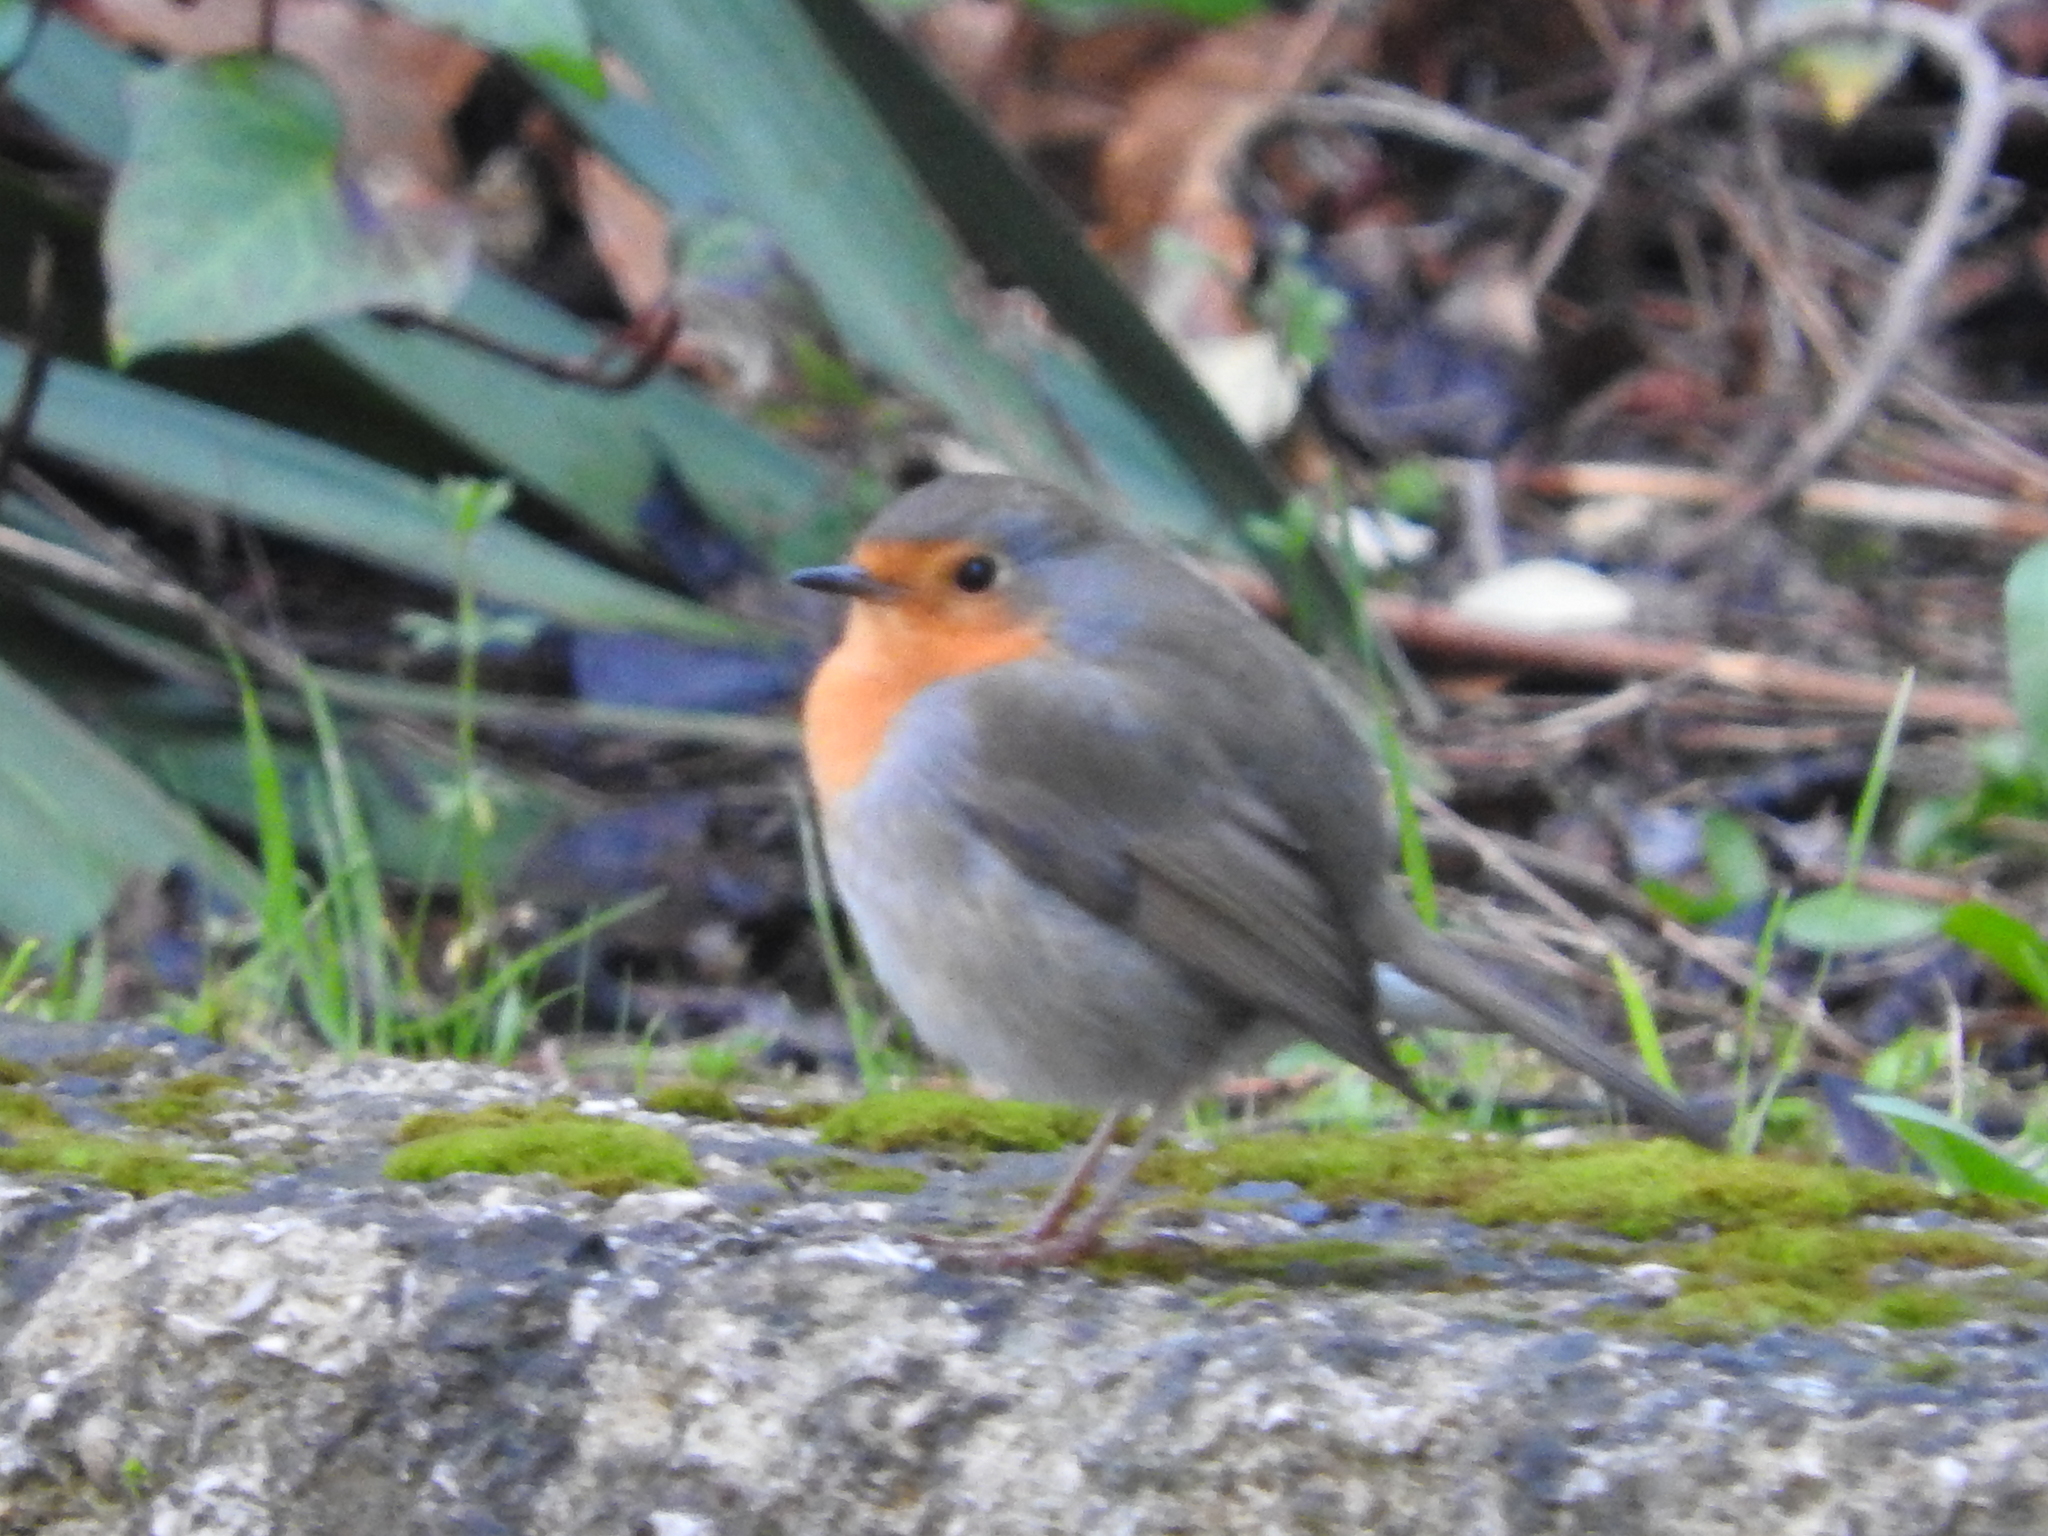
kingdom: Animalia
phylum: Chordata
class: Aves
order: Passeriformes
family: Muscicapidae
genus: Erithacus
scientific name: Erithacus rubecula
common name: European robin
